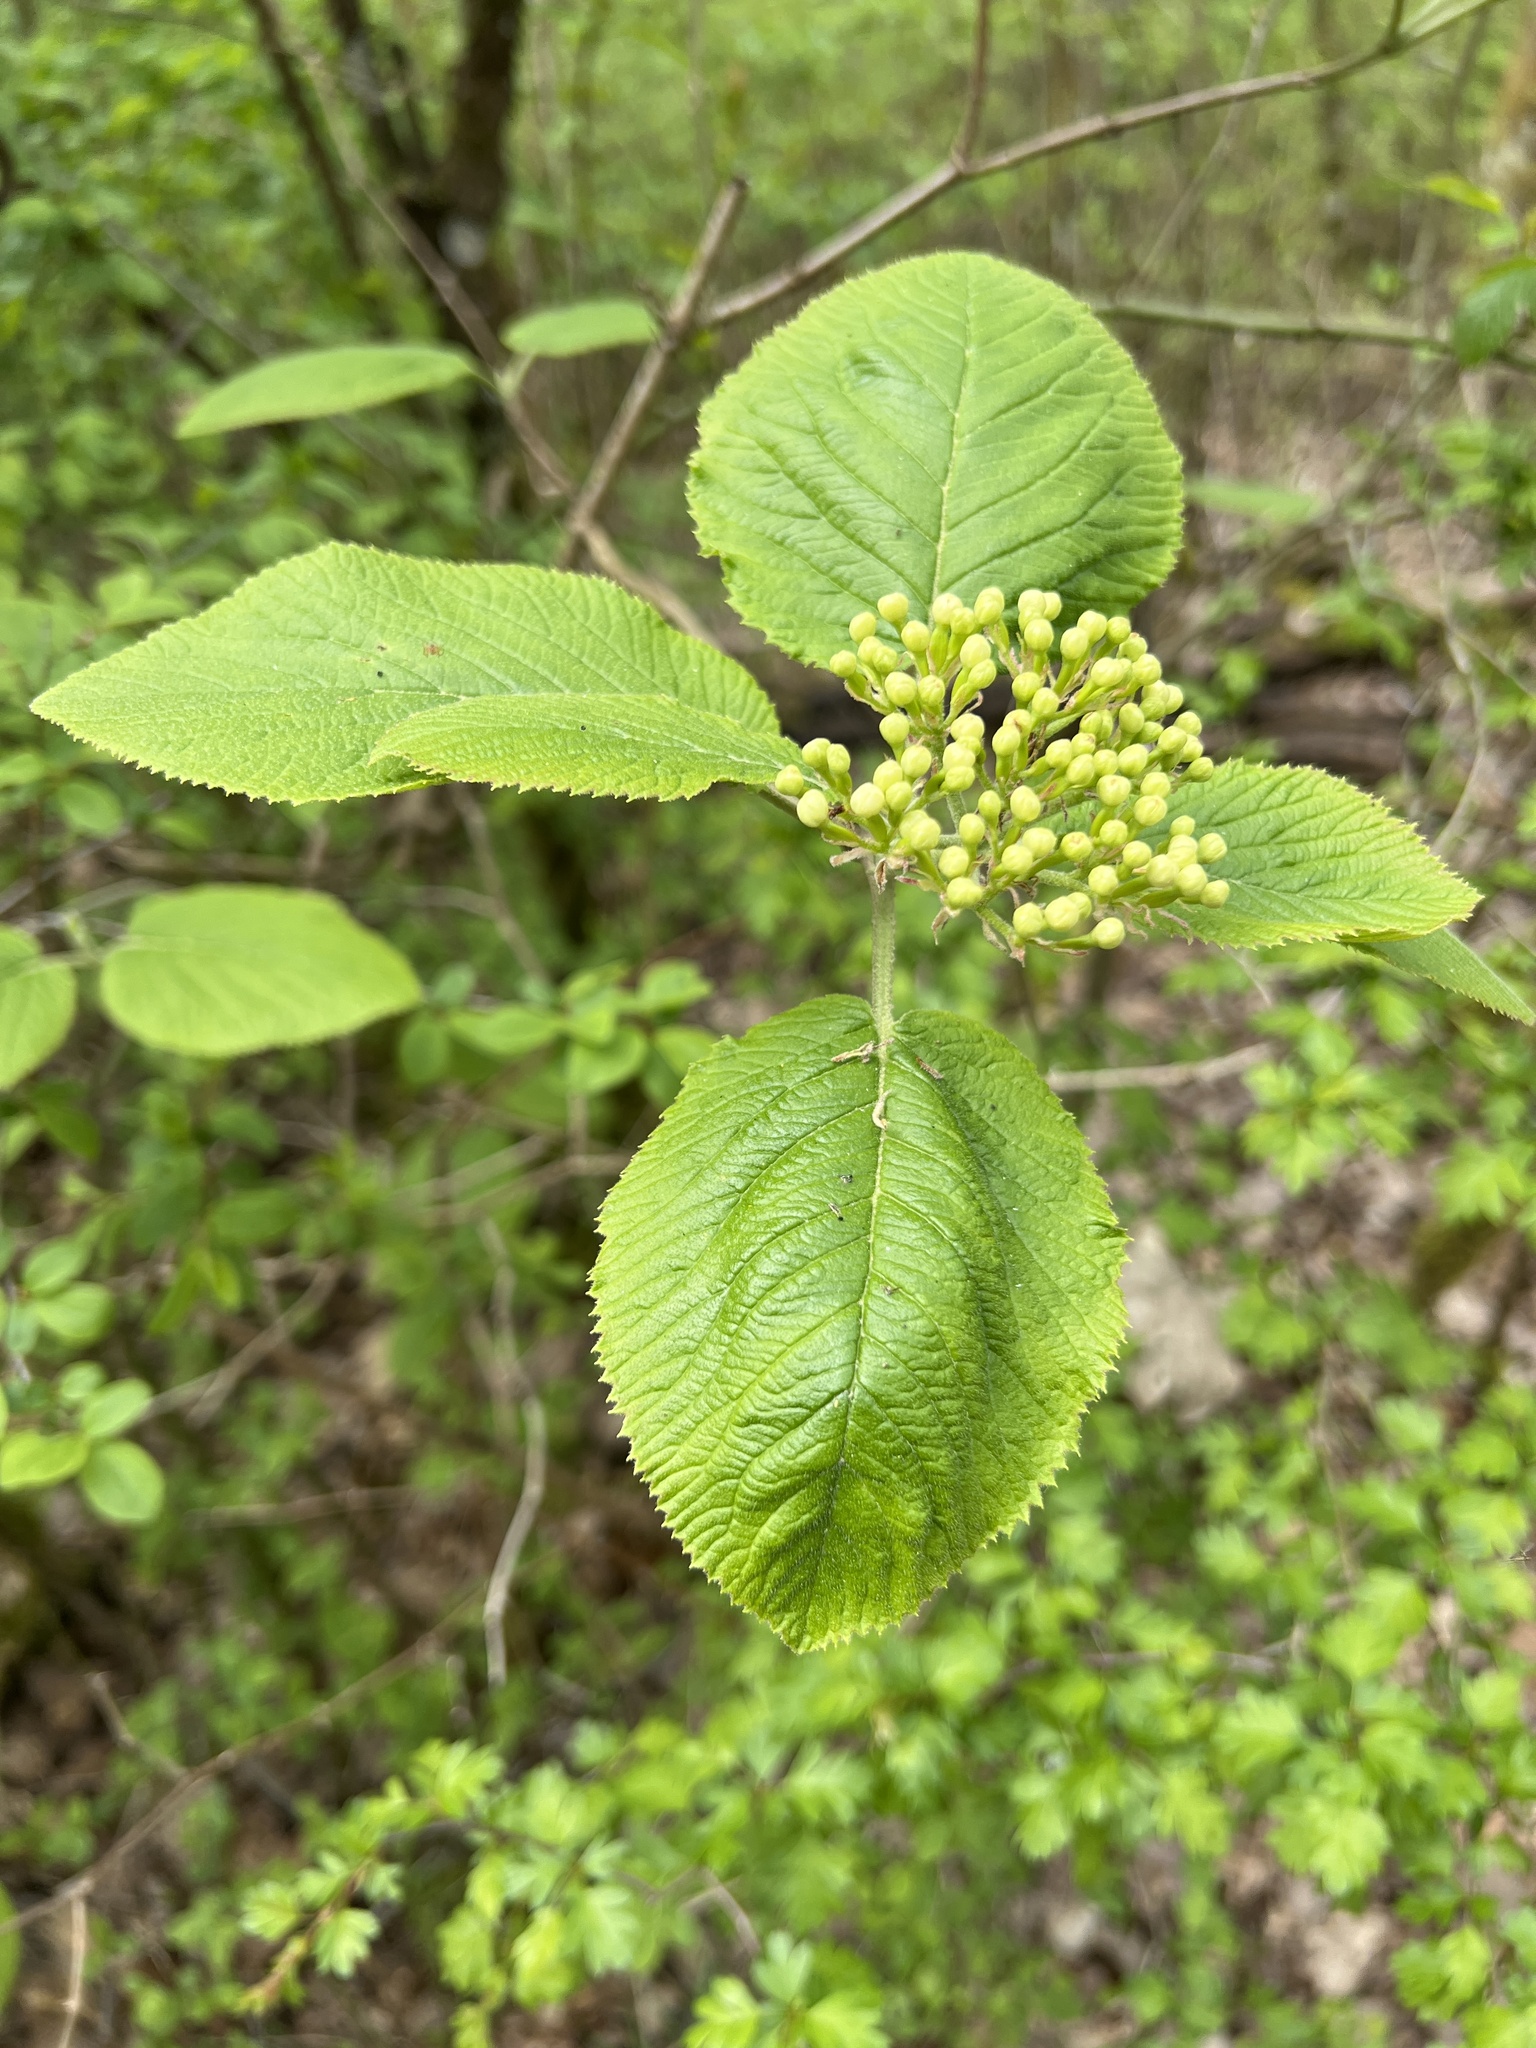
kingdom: Plantae
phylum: Tracheophyta
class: Magnoliopsida
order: Dipsacales
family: Viburnaceae
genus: Viburnum
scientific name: Viburnum lantana
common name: Wayfaring tree
